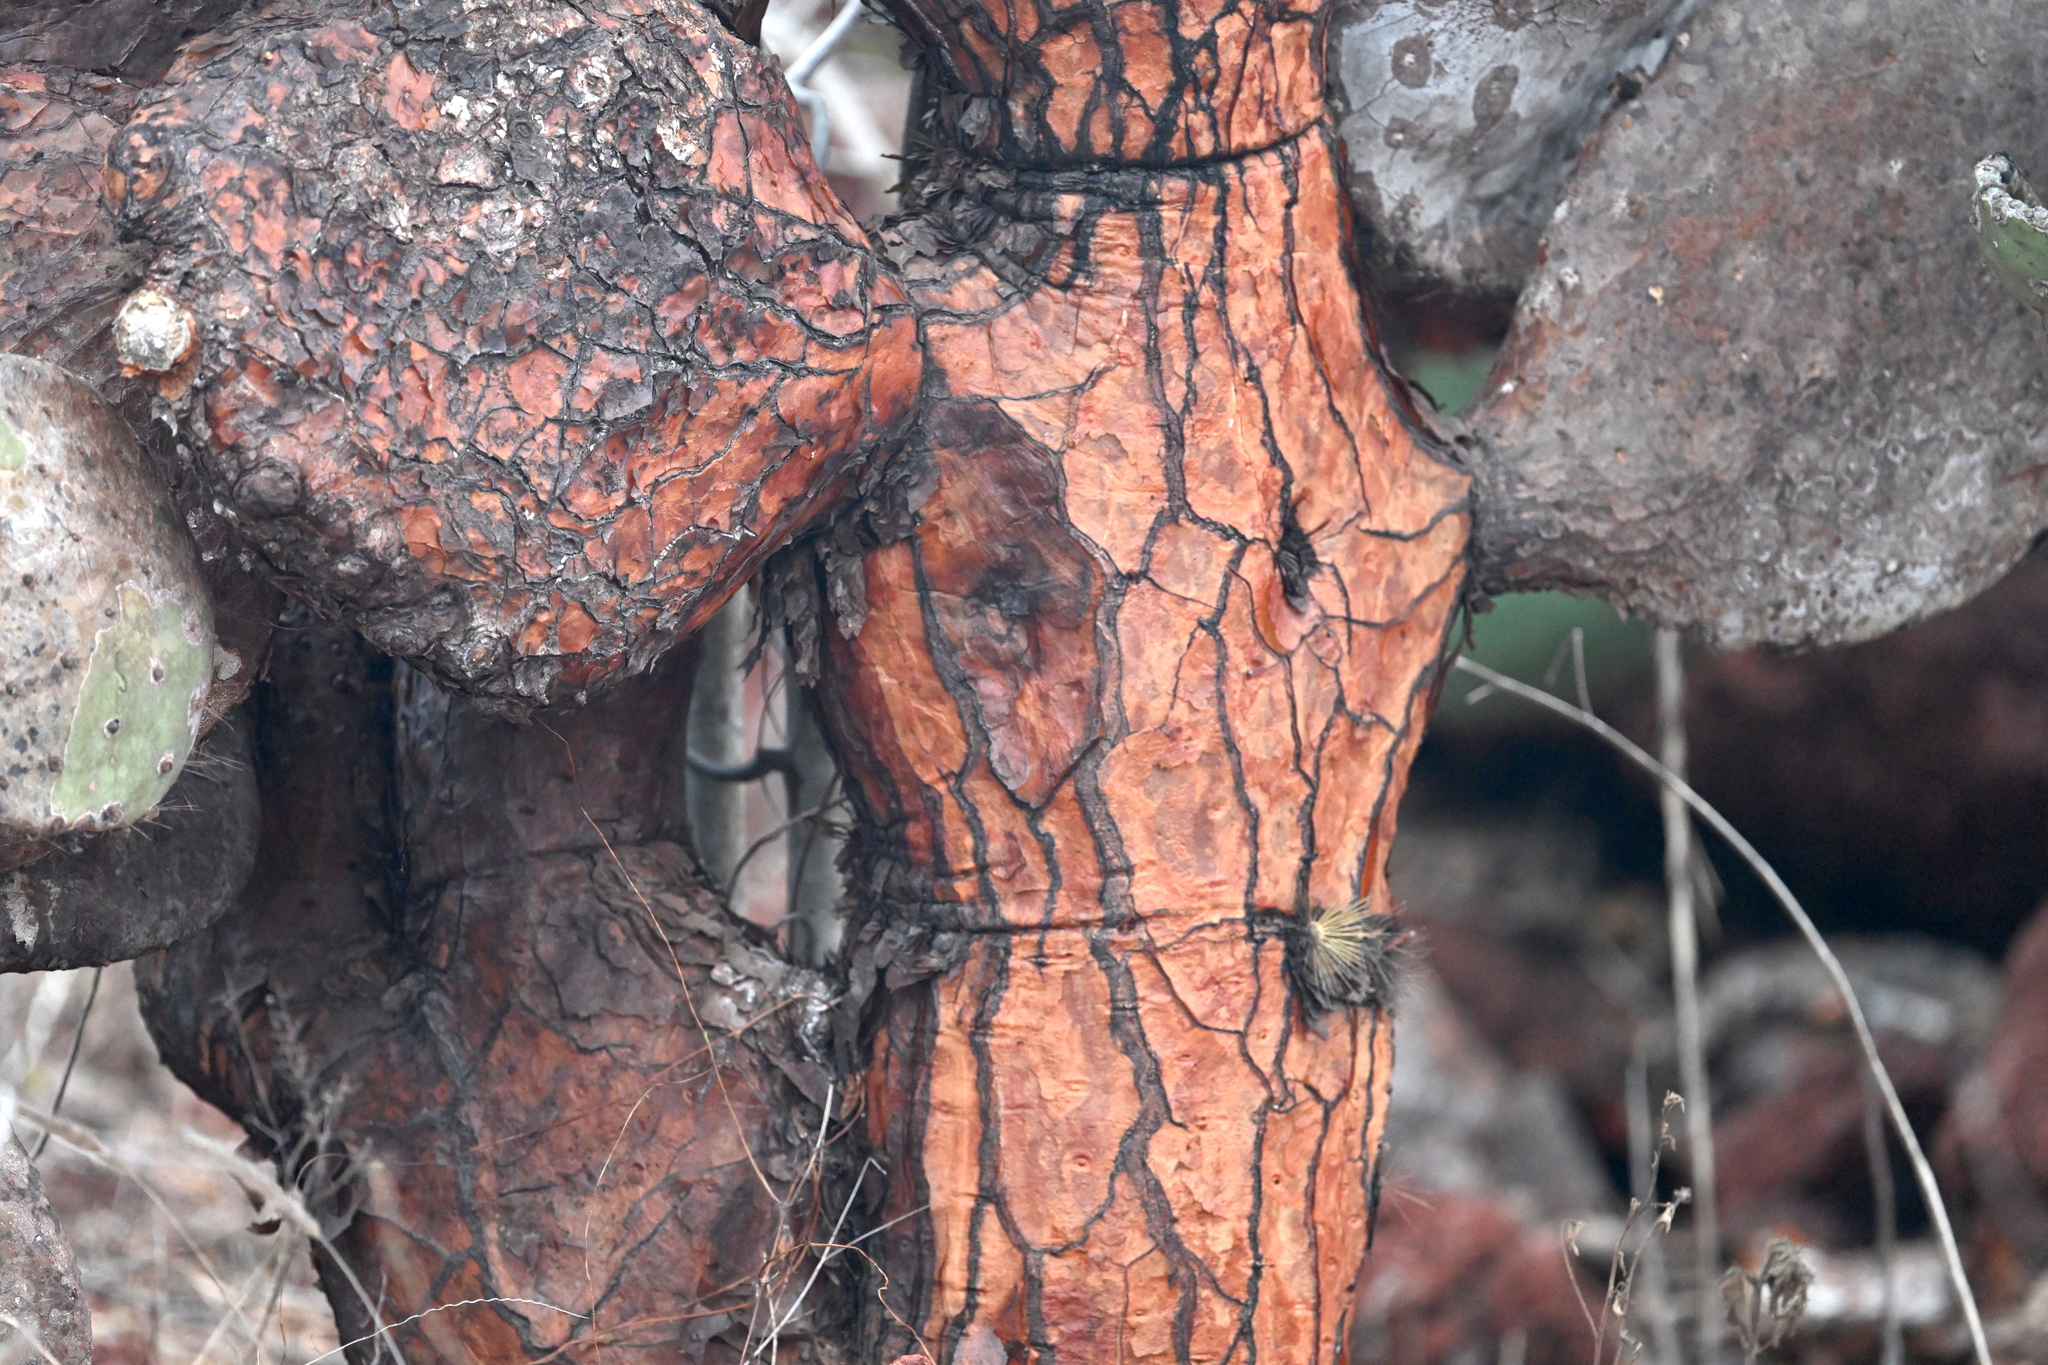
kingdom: Plantae
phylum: Tracheophyta
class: Magnoliopsida
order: Caryophyllales
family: Cactaceae
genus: Opuntia
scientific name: Opuntia galapageia
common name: Galápagos prickly pear
